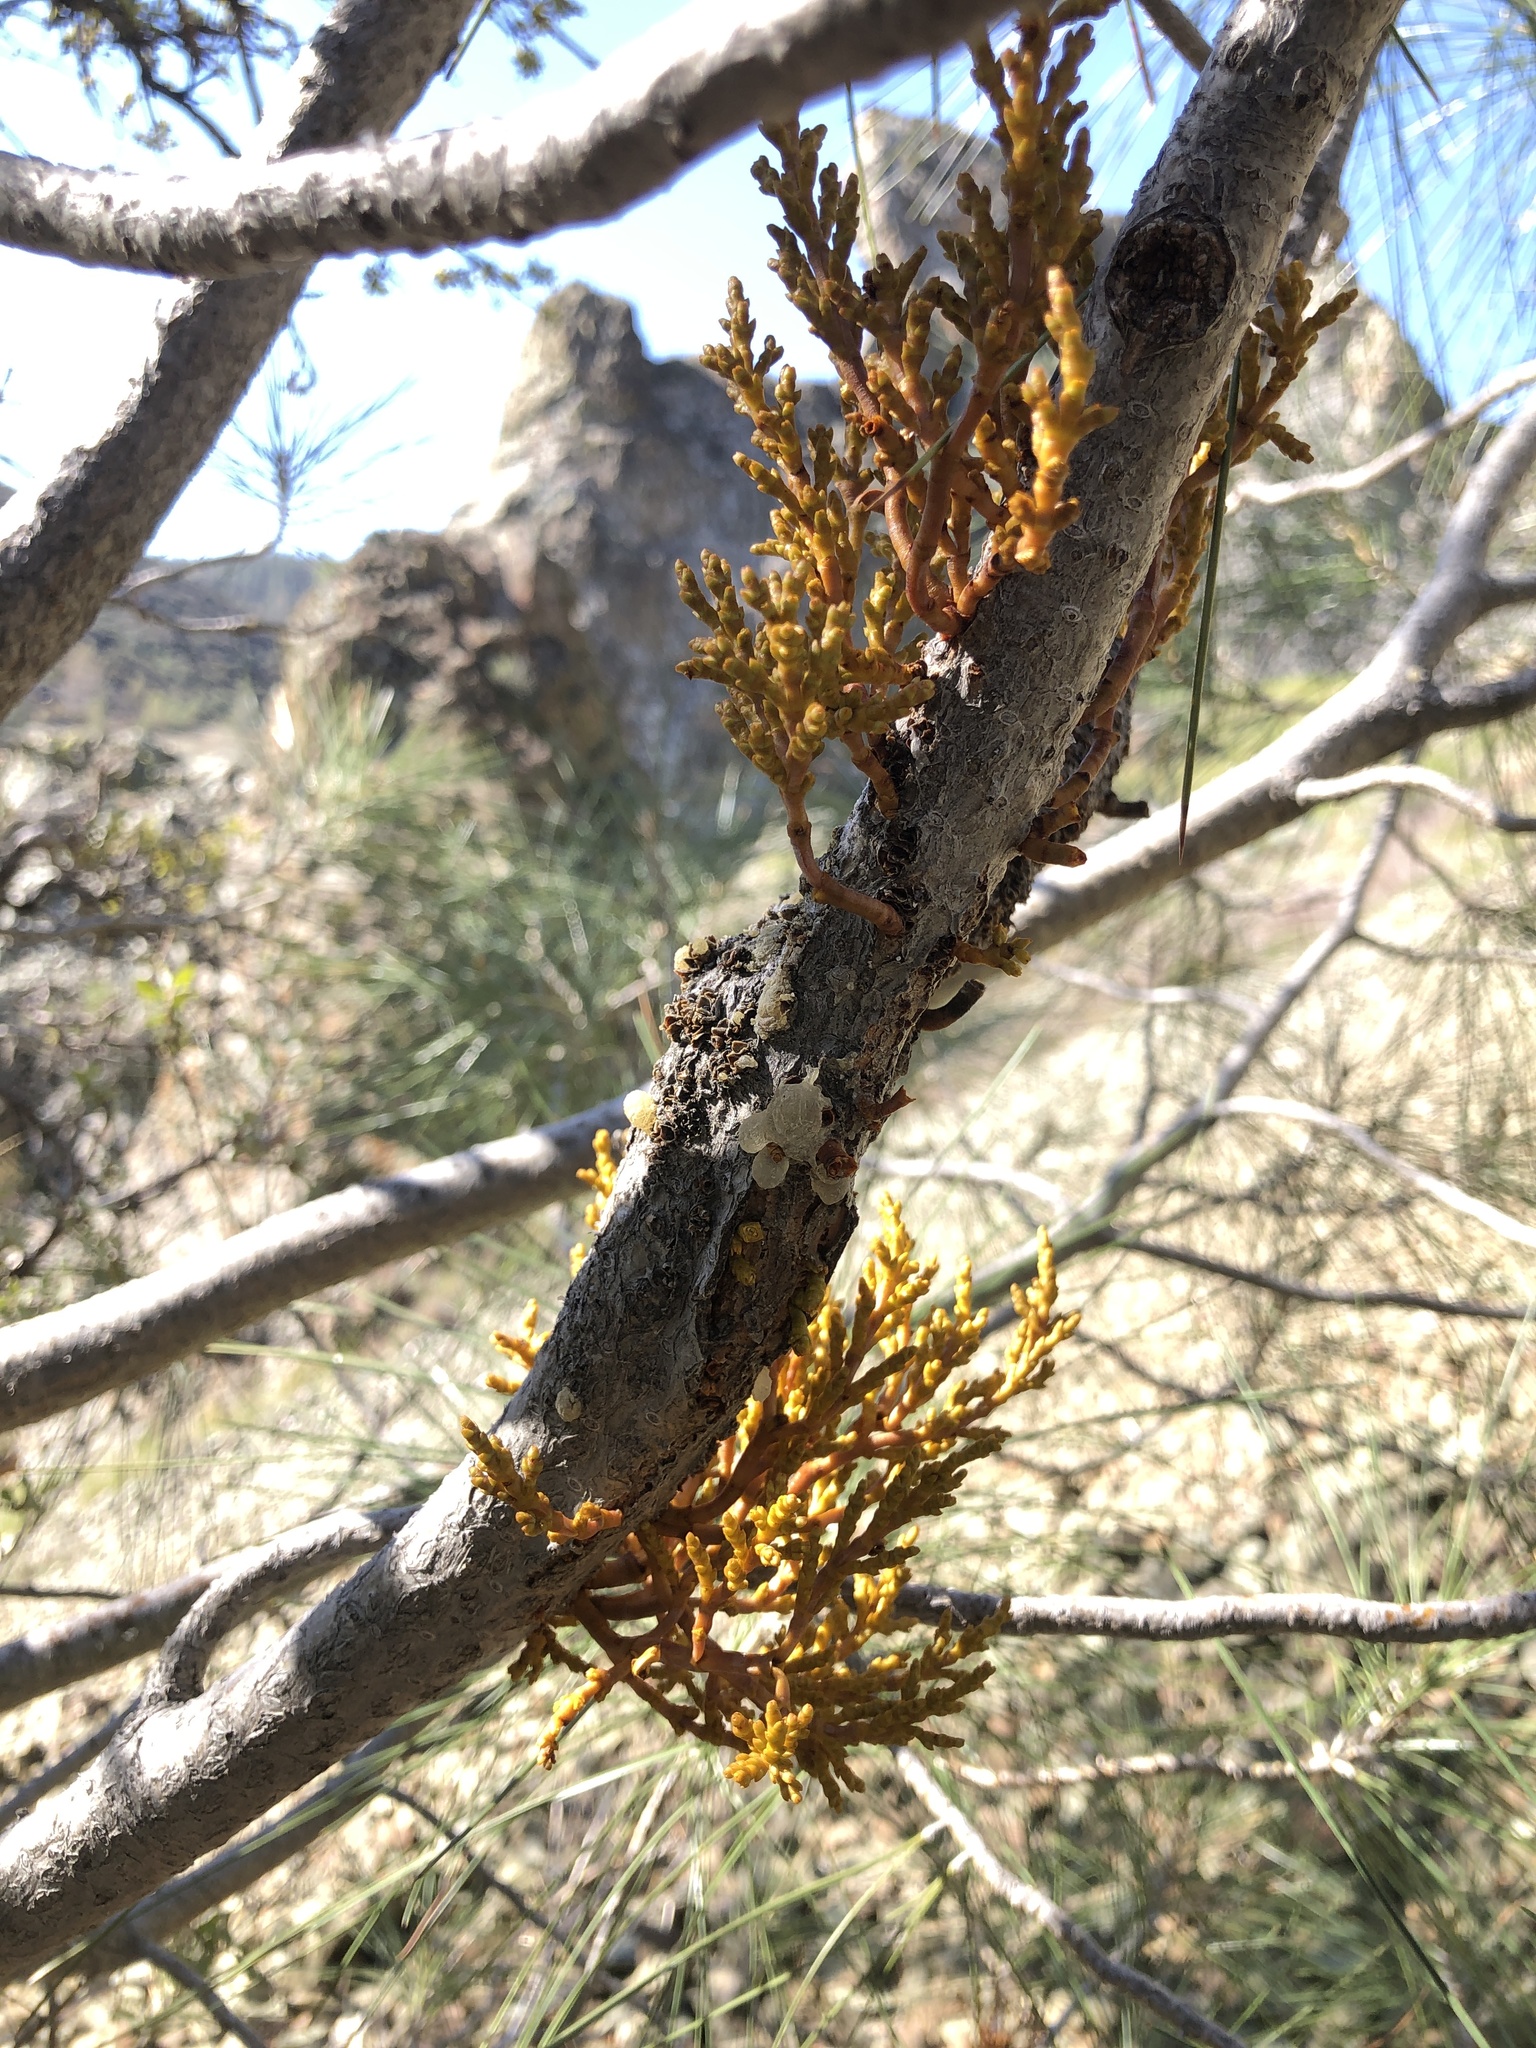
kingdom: Plantae
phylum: Tracheophyta
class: Magnoliopsida
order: Santalales
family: Viscaceae
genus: Arceuthobium
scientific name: Arceuthobium campylopodum
